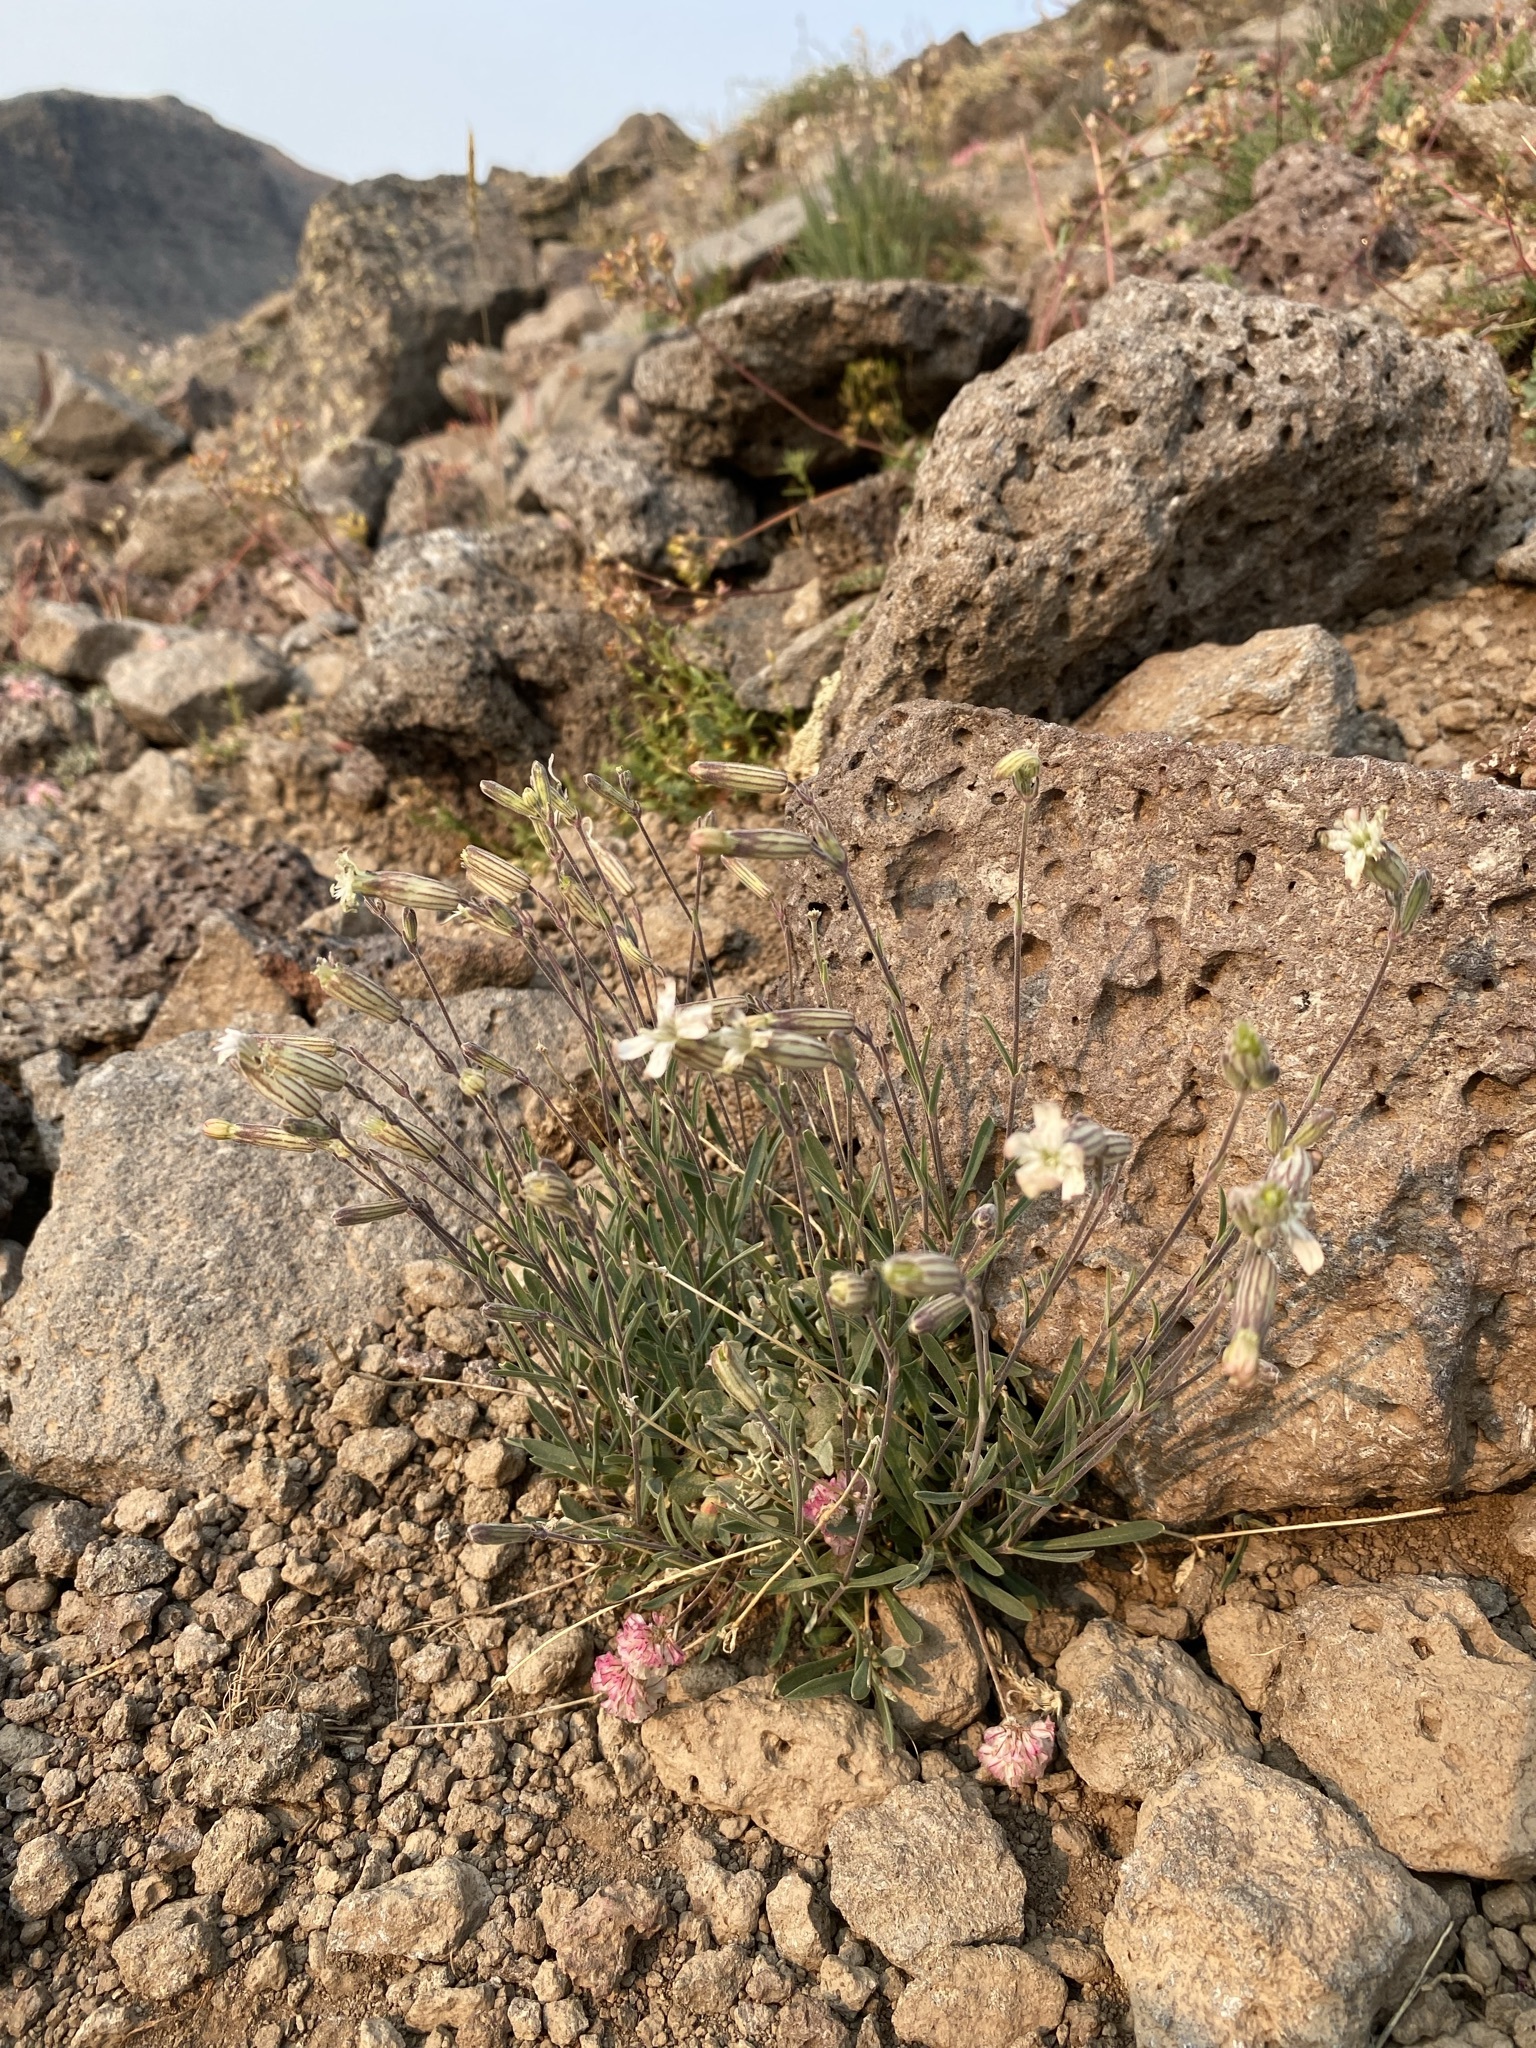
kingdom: Plantae
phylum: Tracheophyta
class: Magnoliopsida
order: Caryophyllales
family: Caryophyllaceae
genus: Silene
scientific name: Silene douglasii
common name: Douglas's catchfly
